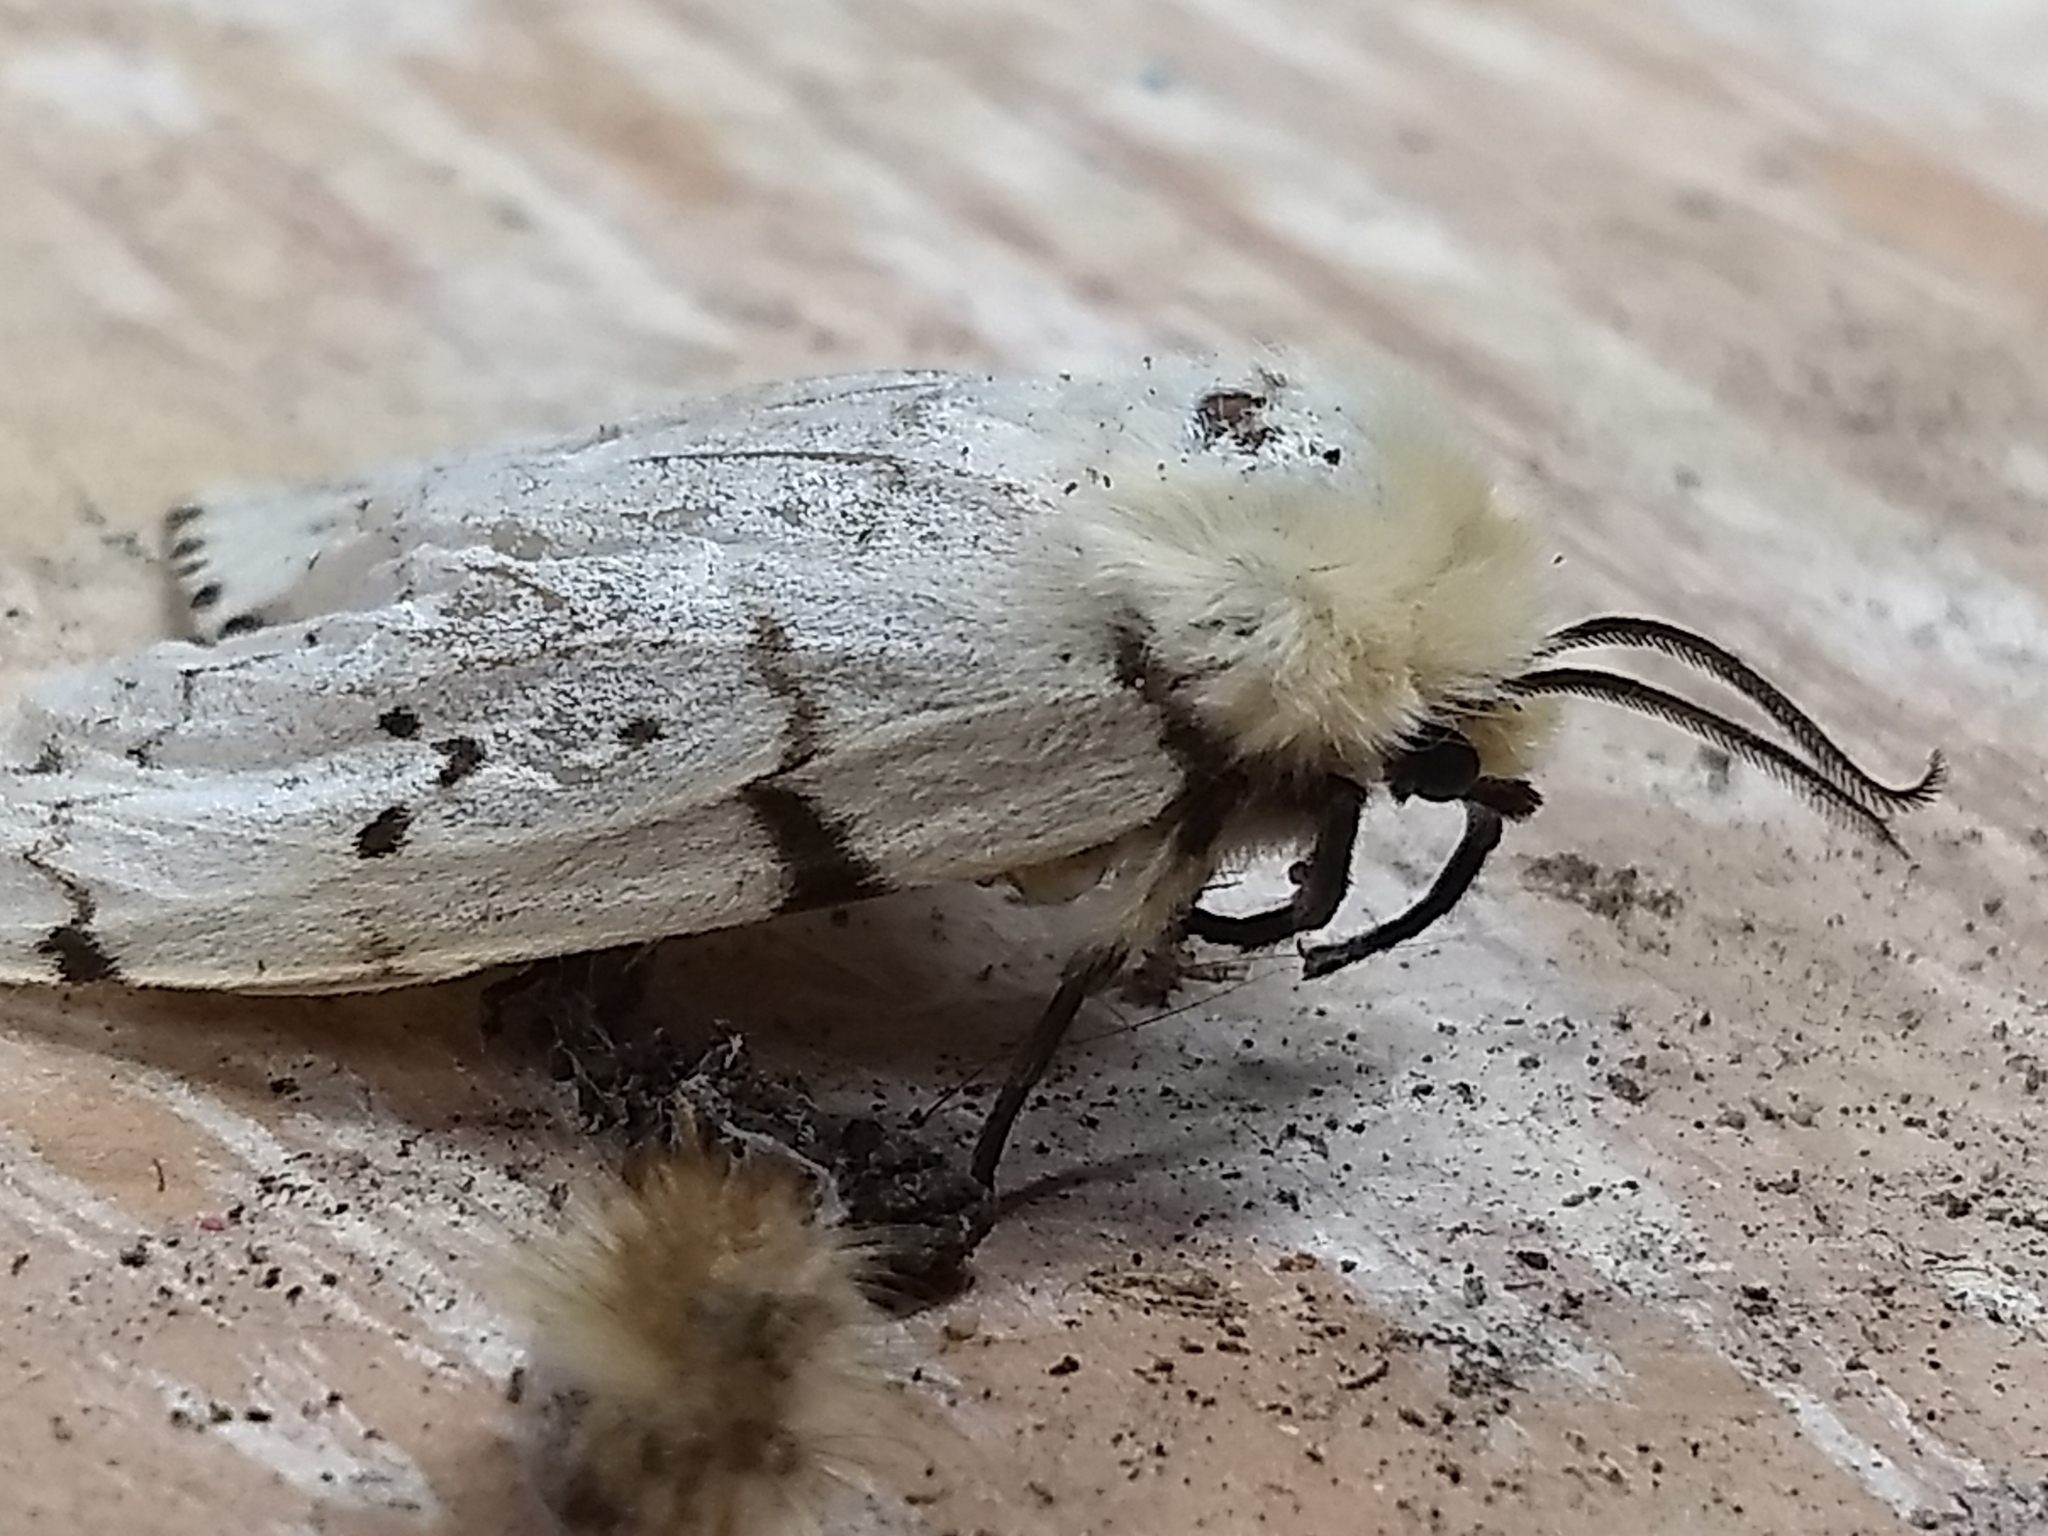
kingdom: Animalia
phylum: Arthropoda
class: Insecta
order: Lepidoptera
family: Erebidae
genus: Lymantria
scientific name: Lymantria dispar
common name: Gypsy moth
